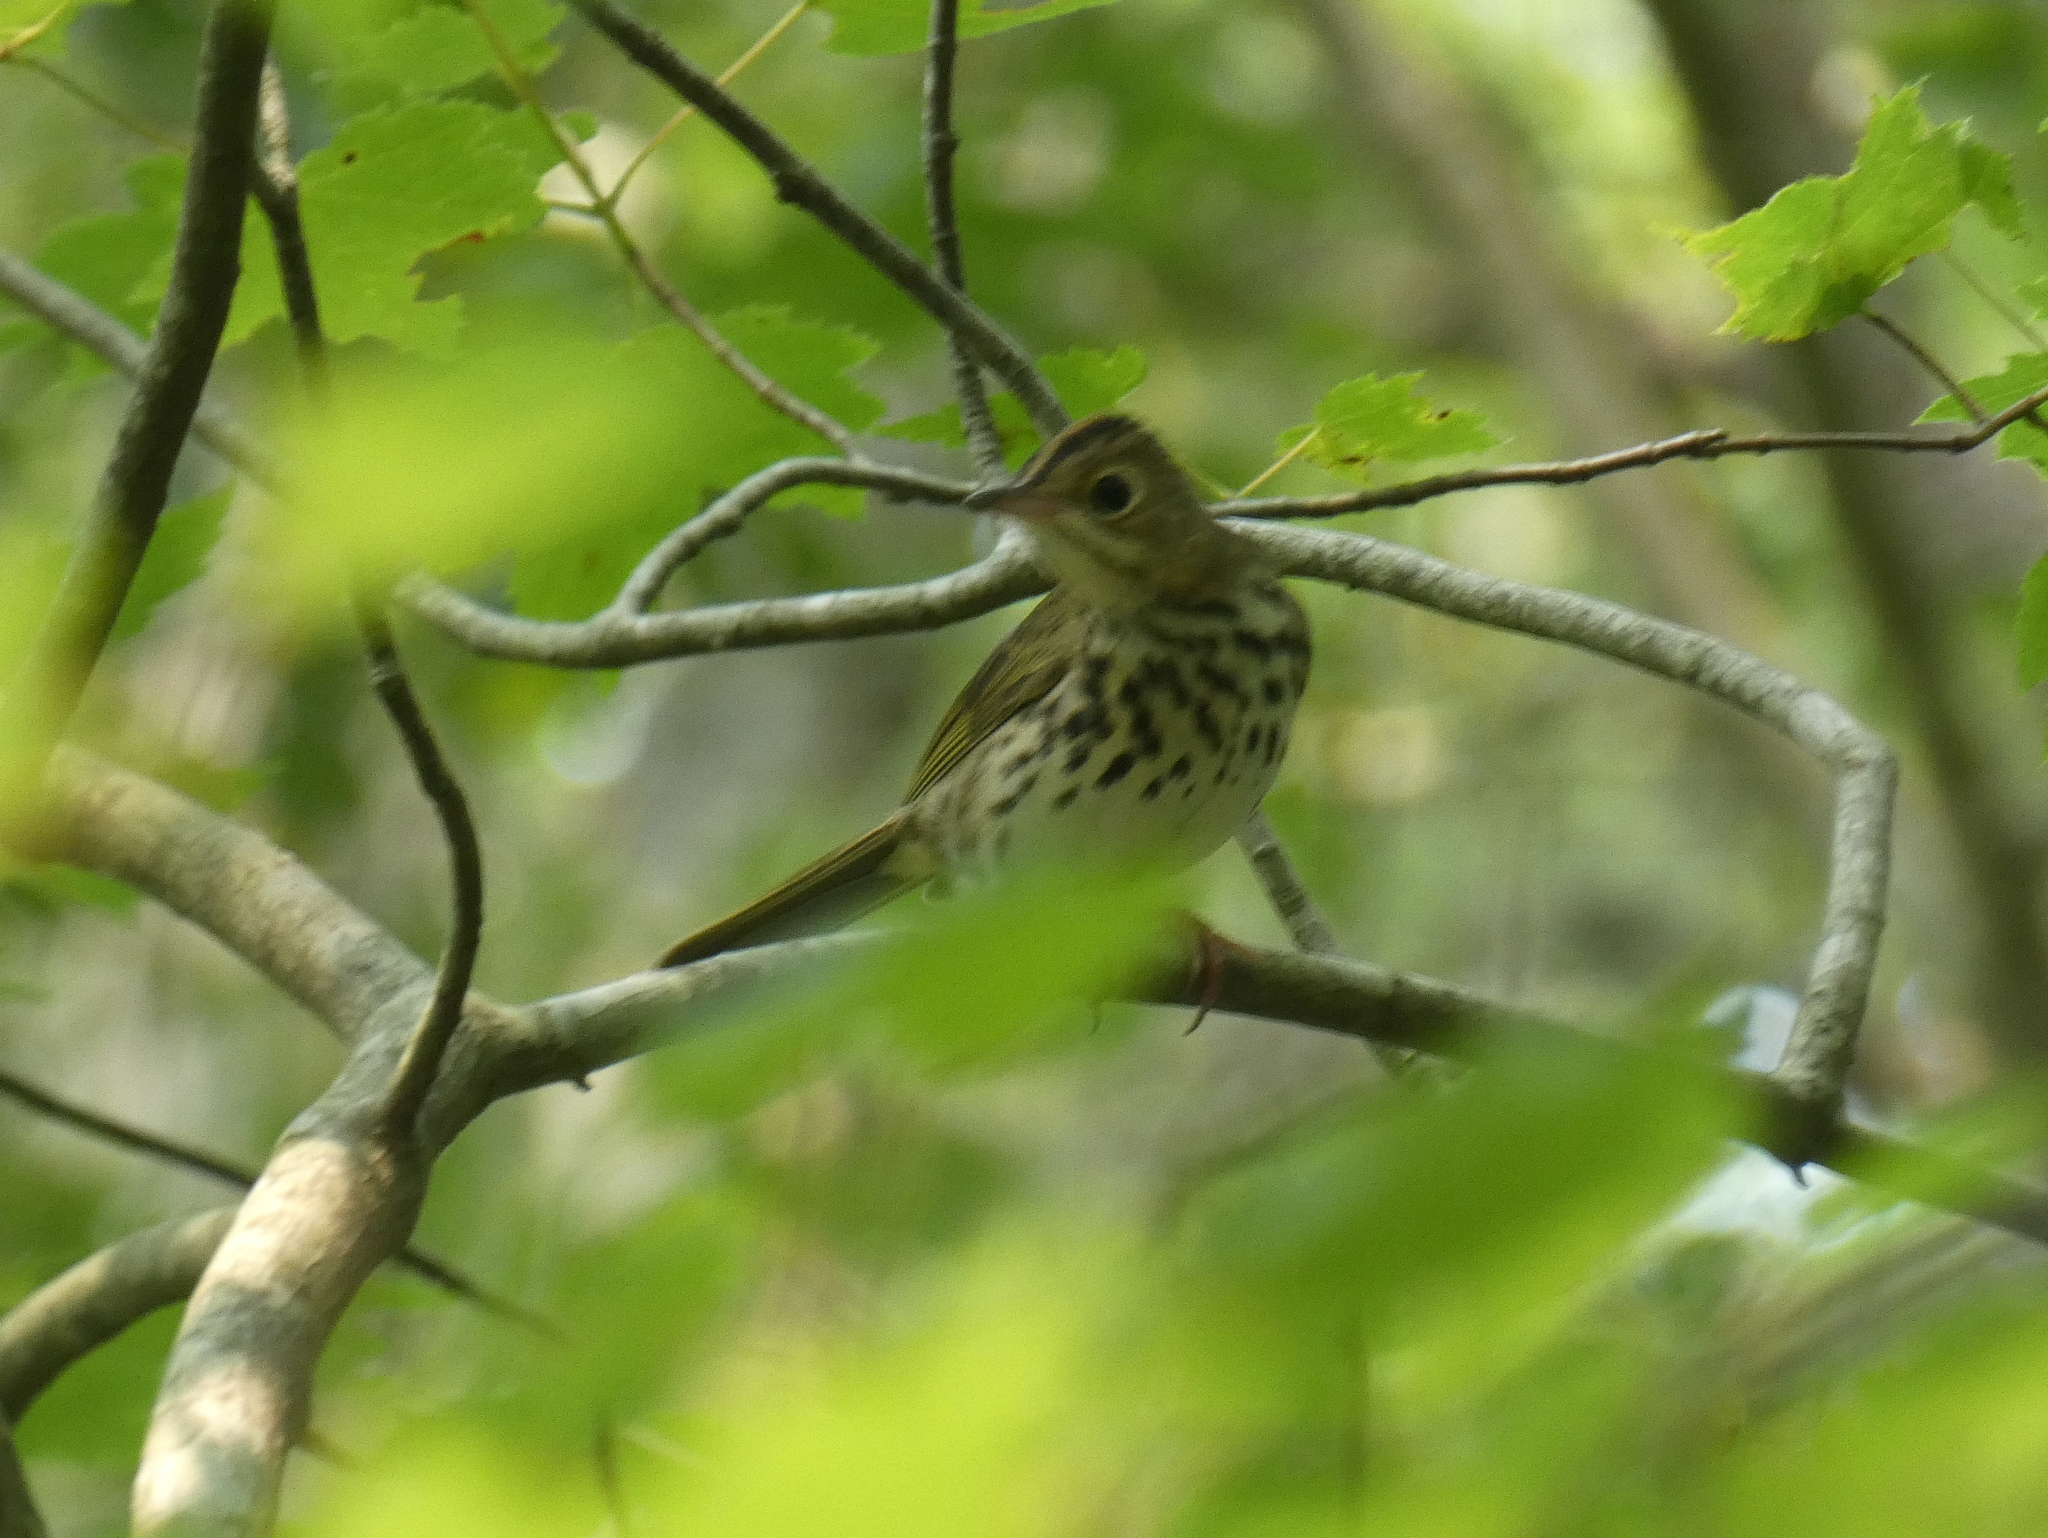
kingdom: Animalia
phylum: Chordata
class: Aves
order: Passeriformes
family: Parulidae
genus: Seiurus
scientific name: Seiurus aurocapilla
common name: Ovenbird
